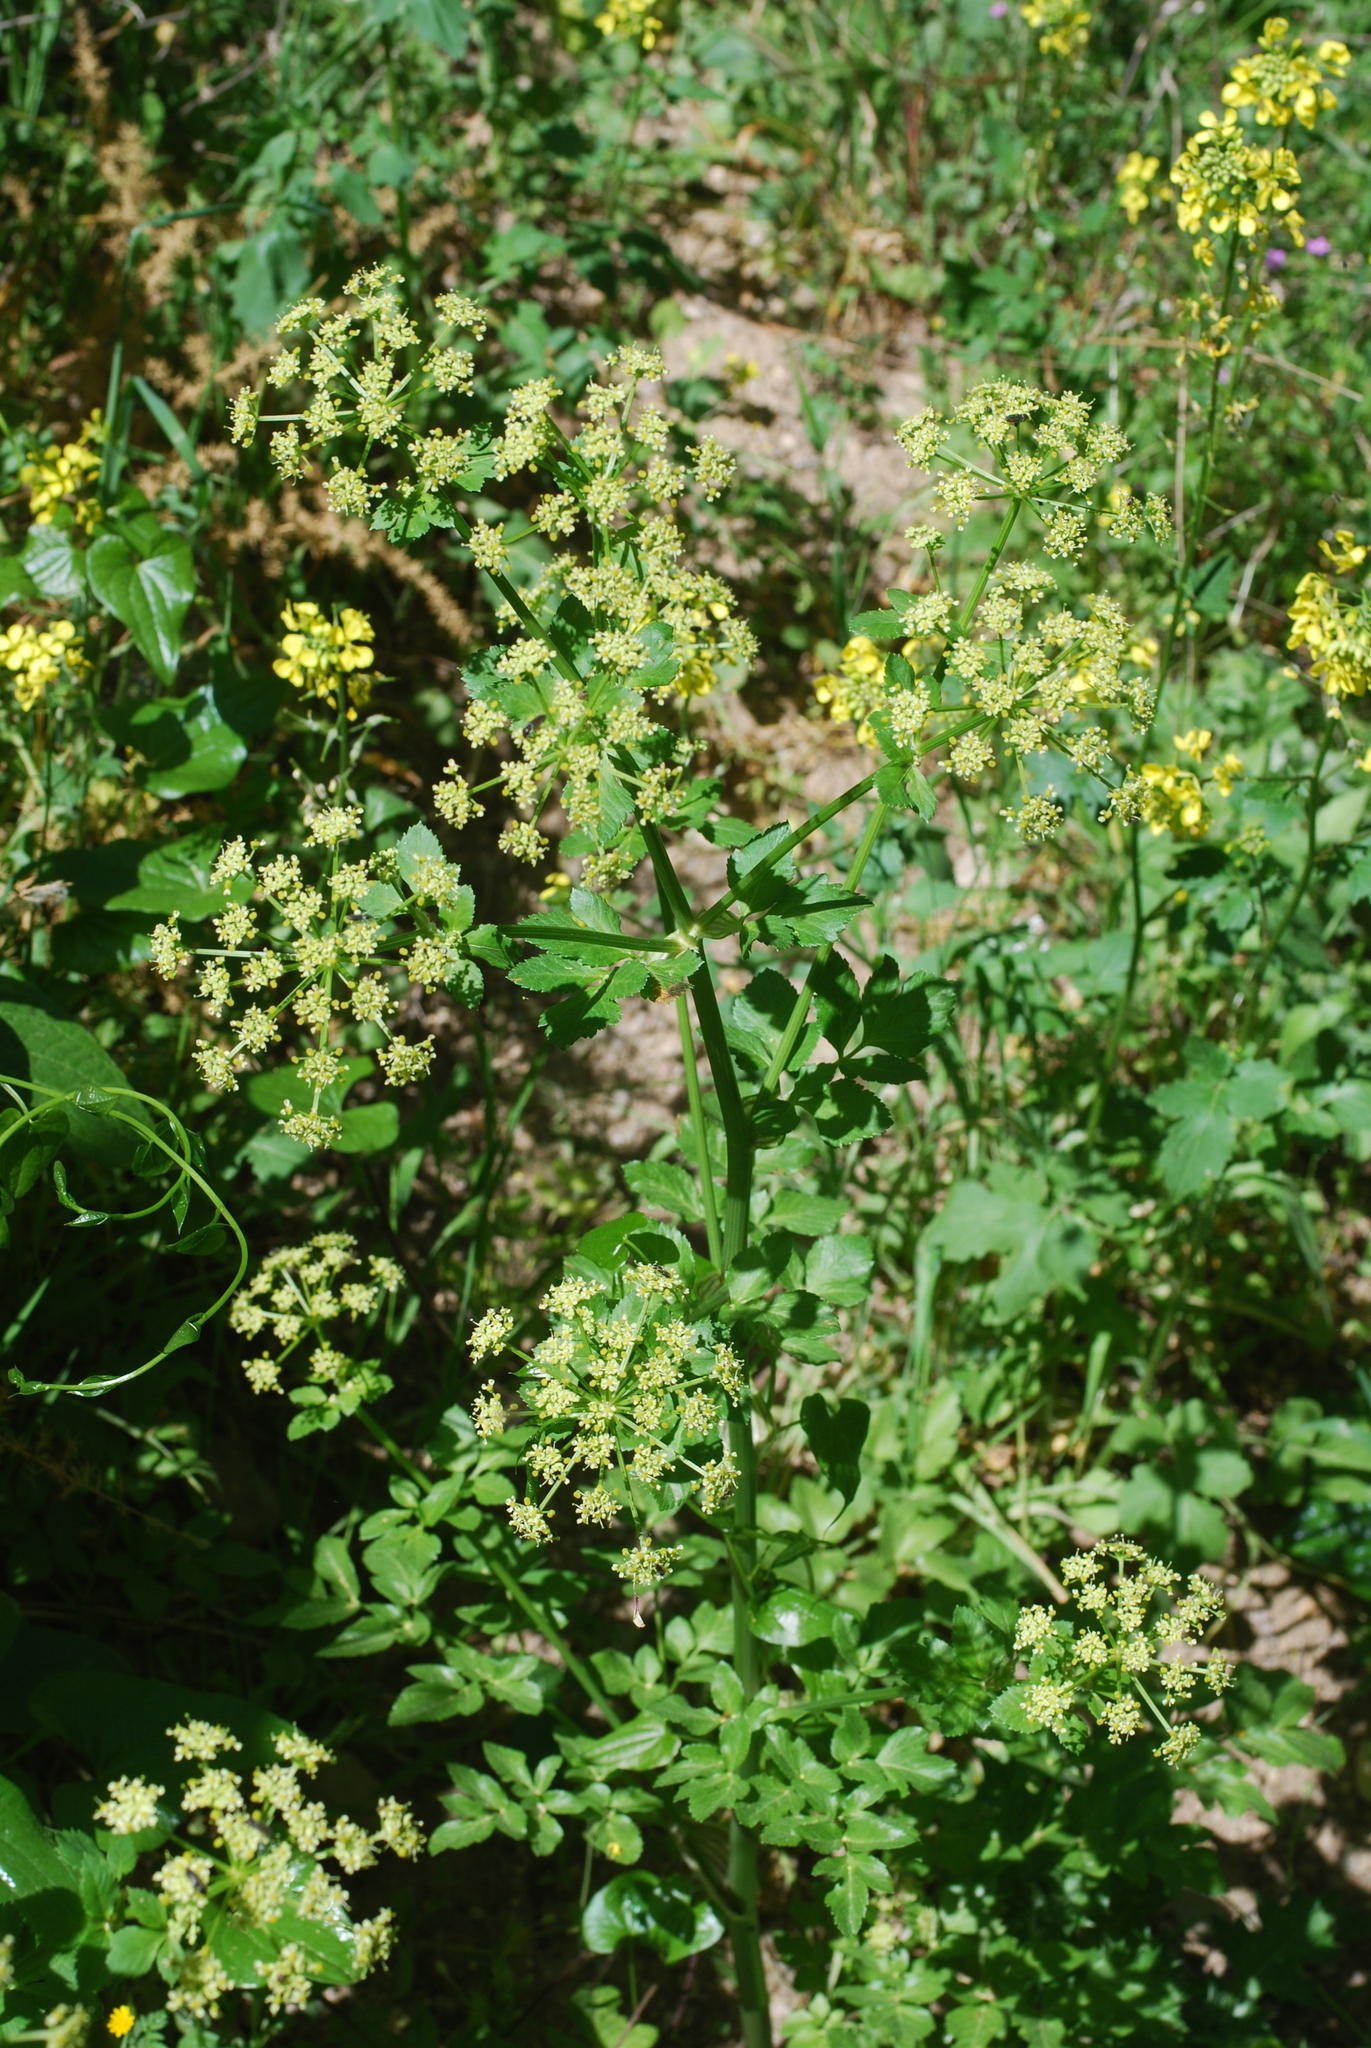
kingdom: Plantae
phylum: Tracheophyta
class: Magnoliopsida
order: Apiales
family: Apiaceae
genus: Smyrnium
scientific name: Smyrnium olusatrum
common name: Alexanders
